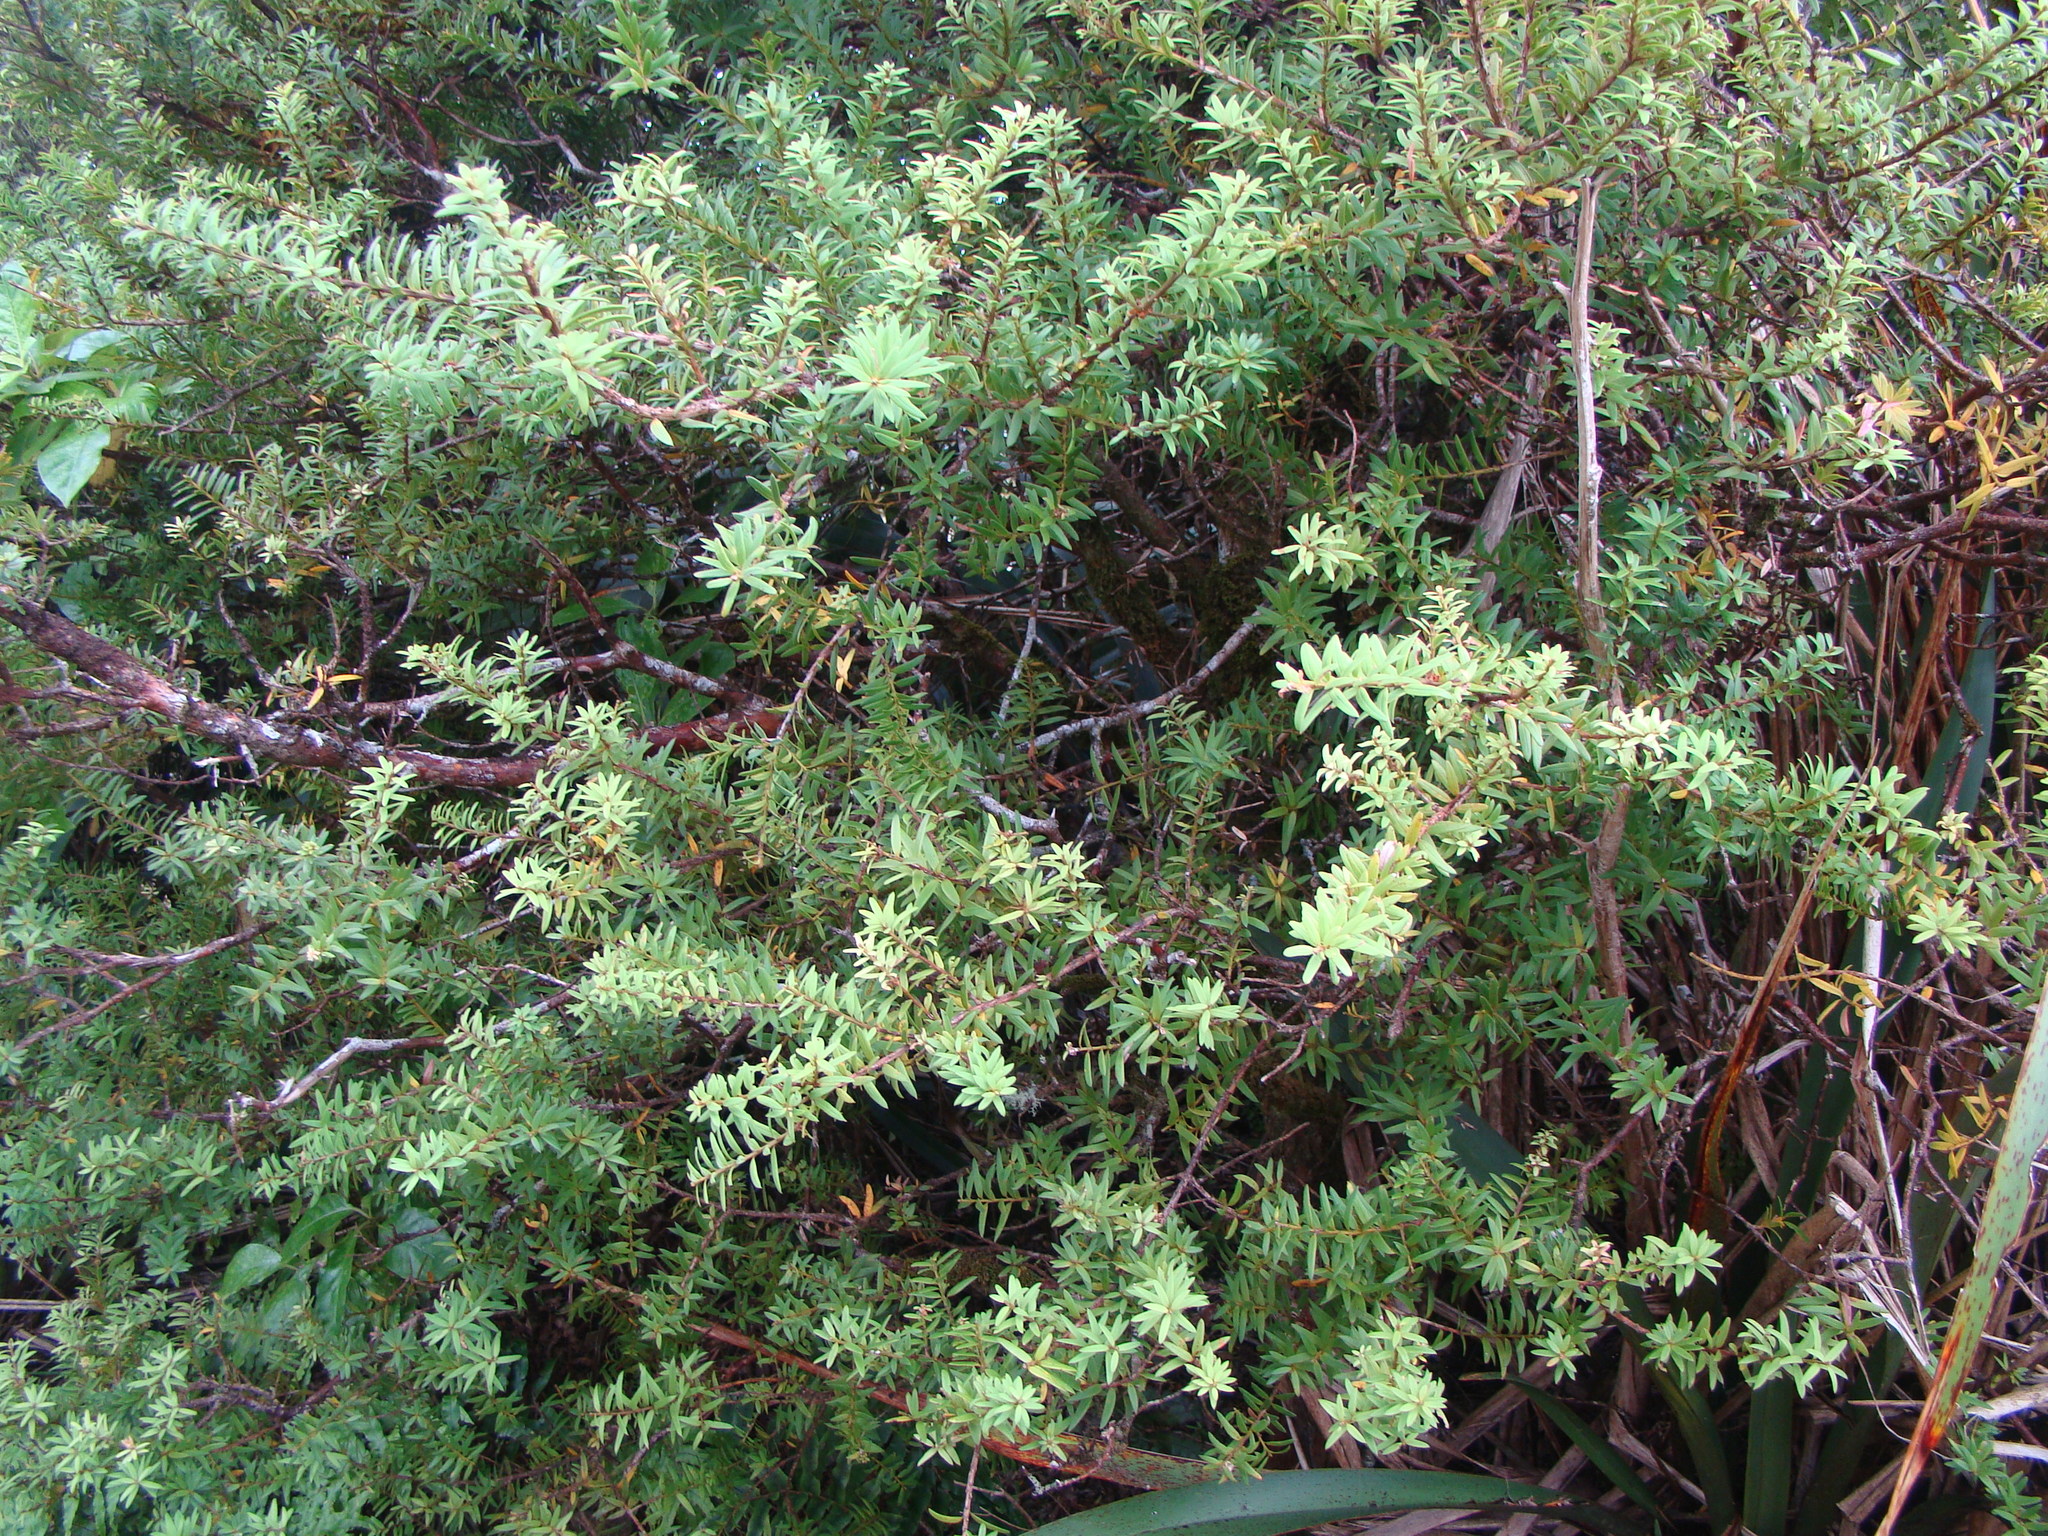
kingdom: Plantae
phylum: Tracheophyta
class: Pinopsida
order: Pinales
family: Podocarpaceae
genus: Podocarpus
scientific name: Podocarpus laetus
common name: Hall's totara
